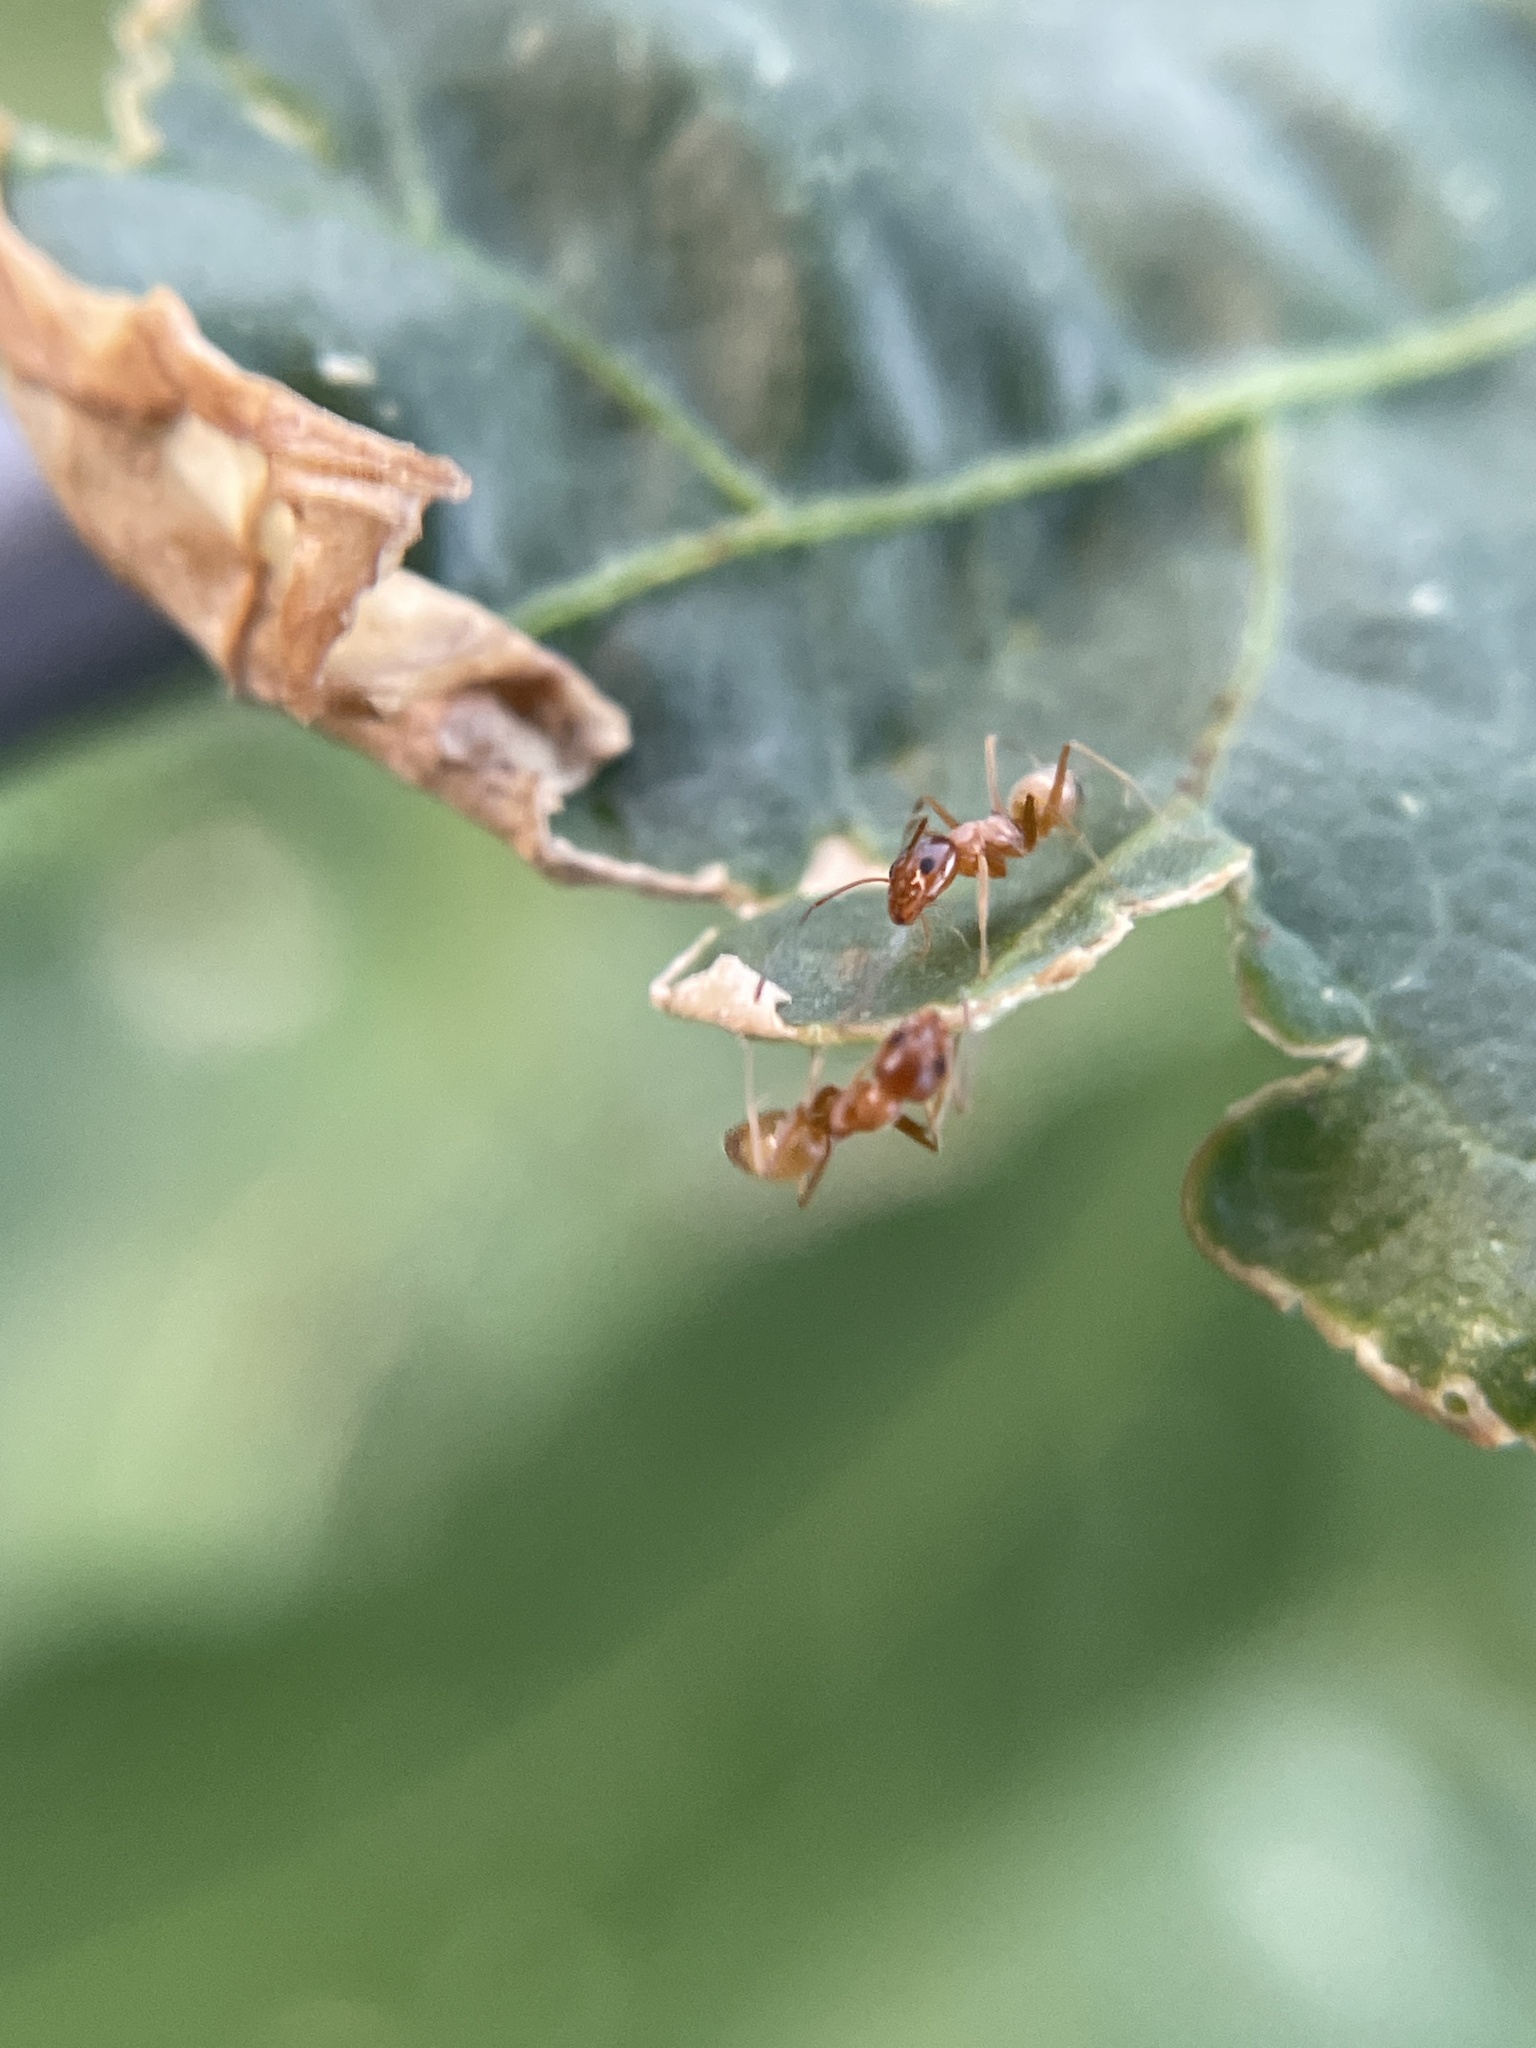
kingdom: Animalia
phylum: Arthropoda
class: Insecta
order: Hymenoptera
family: Formicidae
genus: Dorymyrmex
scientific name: Dorymyrmex flavus
